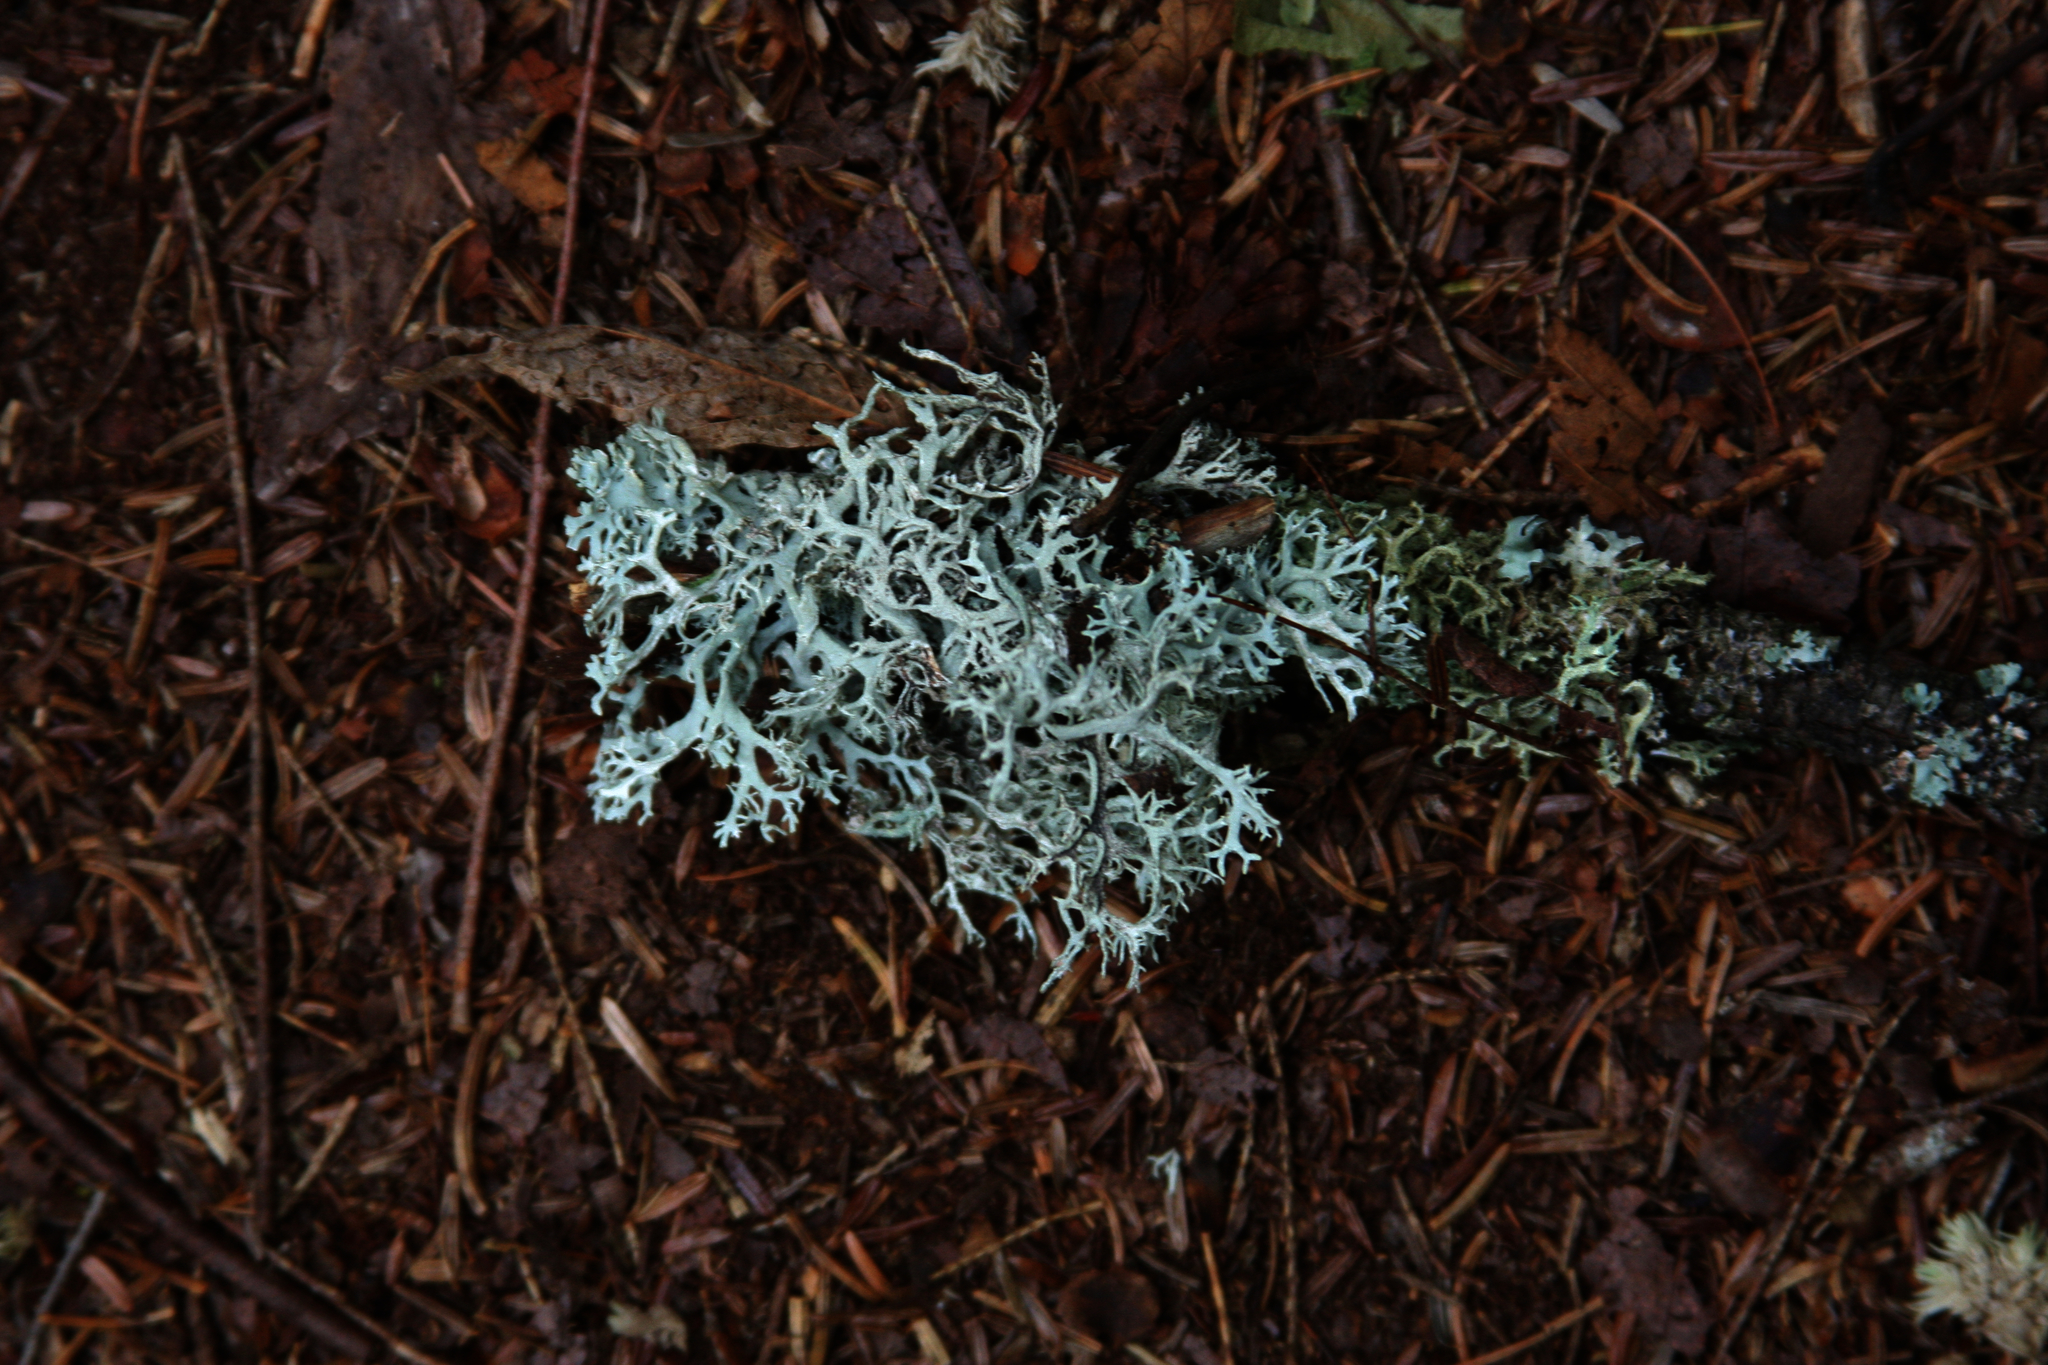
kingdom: Fungi
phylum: Ascomycota
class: Lecanoromycetes
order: Lecanorales
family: Parmeliaceae
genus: Pseudevernia
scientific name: Pseudevernia consocians
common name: Common antler lichen
